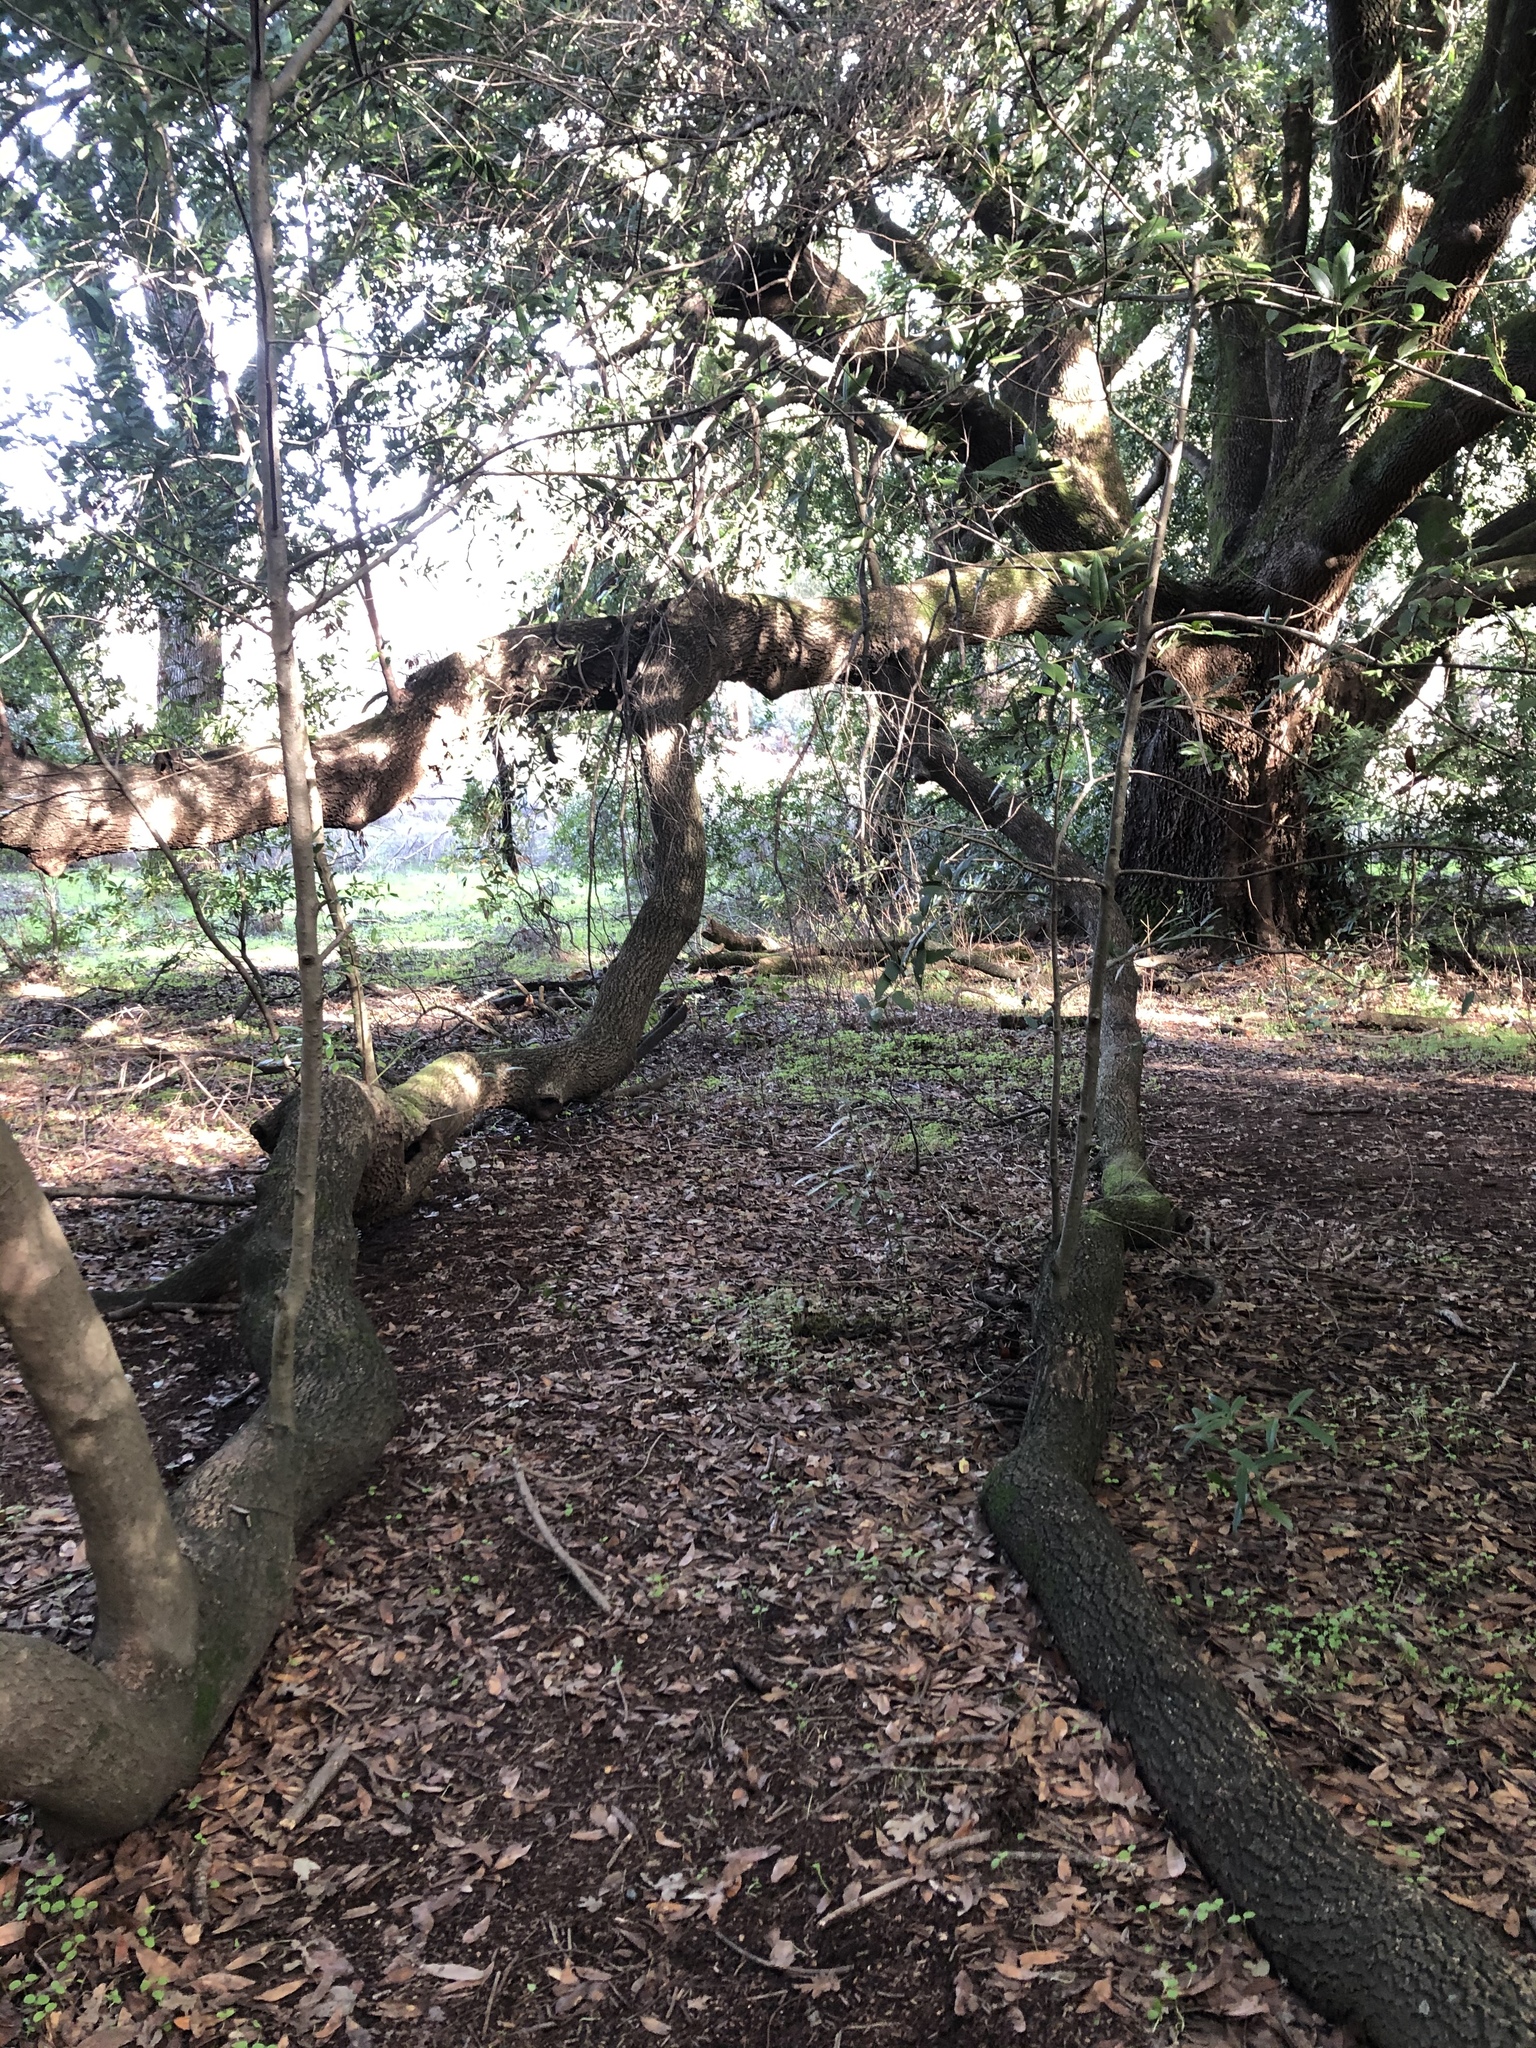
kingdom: Plantae
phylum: Tracheophyta
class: Magnoliopsida
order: Laurales
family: Lauraceae
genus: Umbellularia
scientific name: Umbellularia californica
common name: California bay
